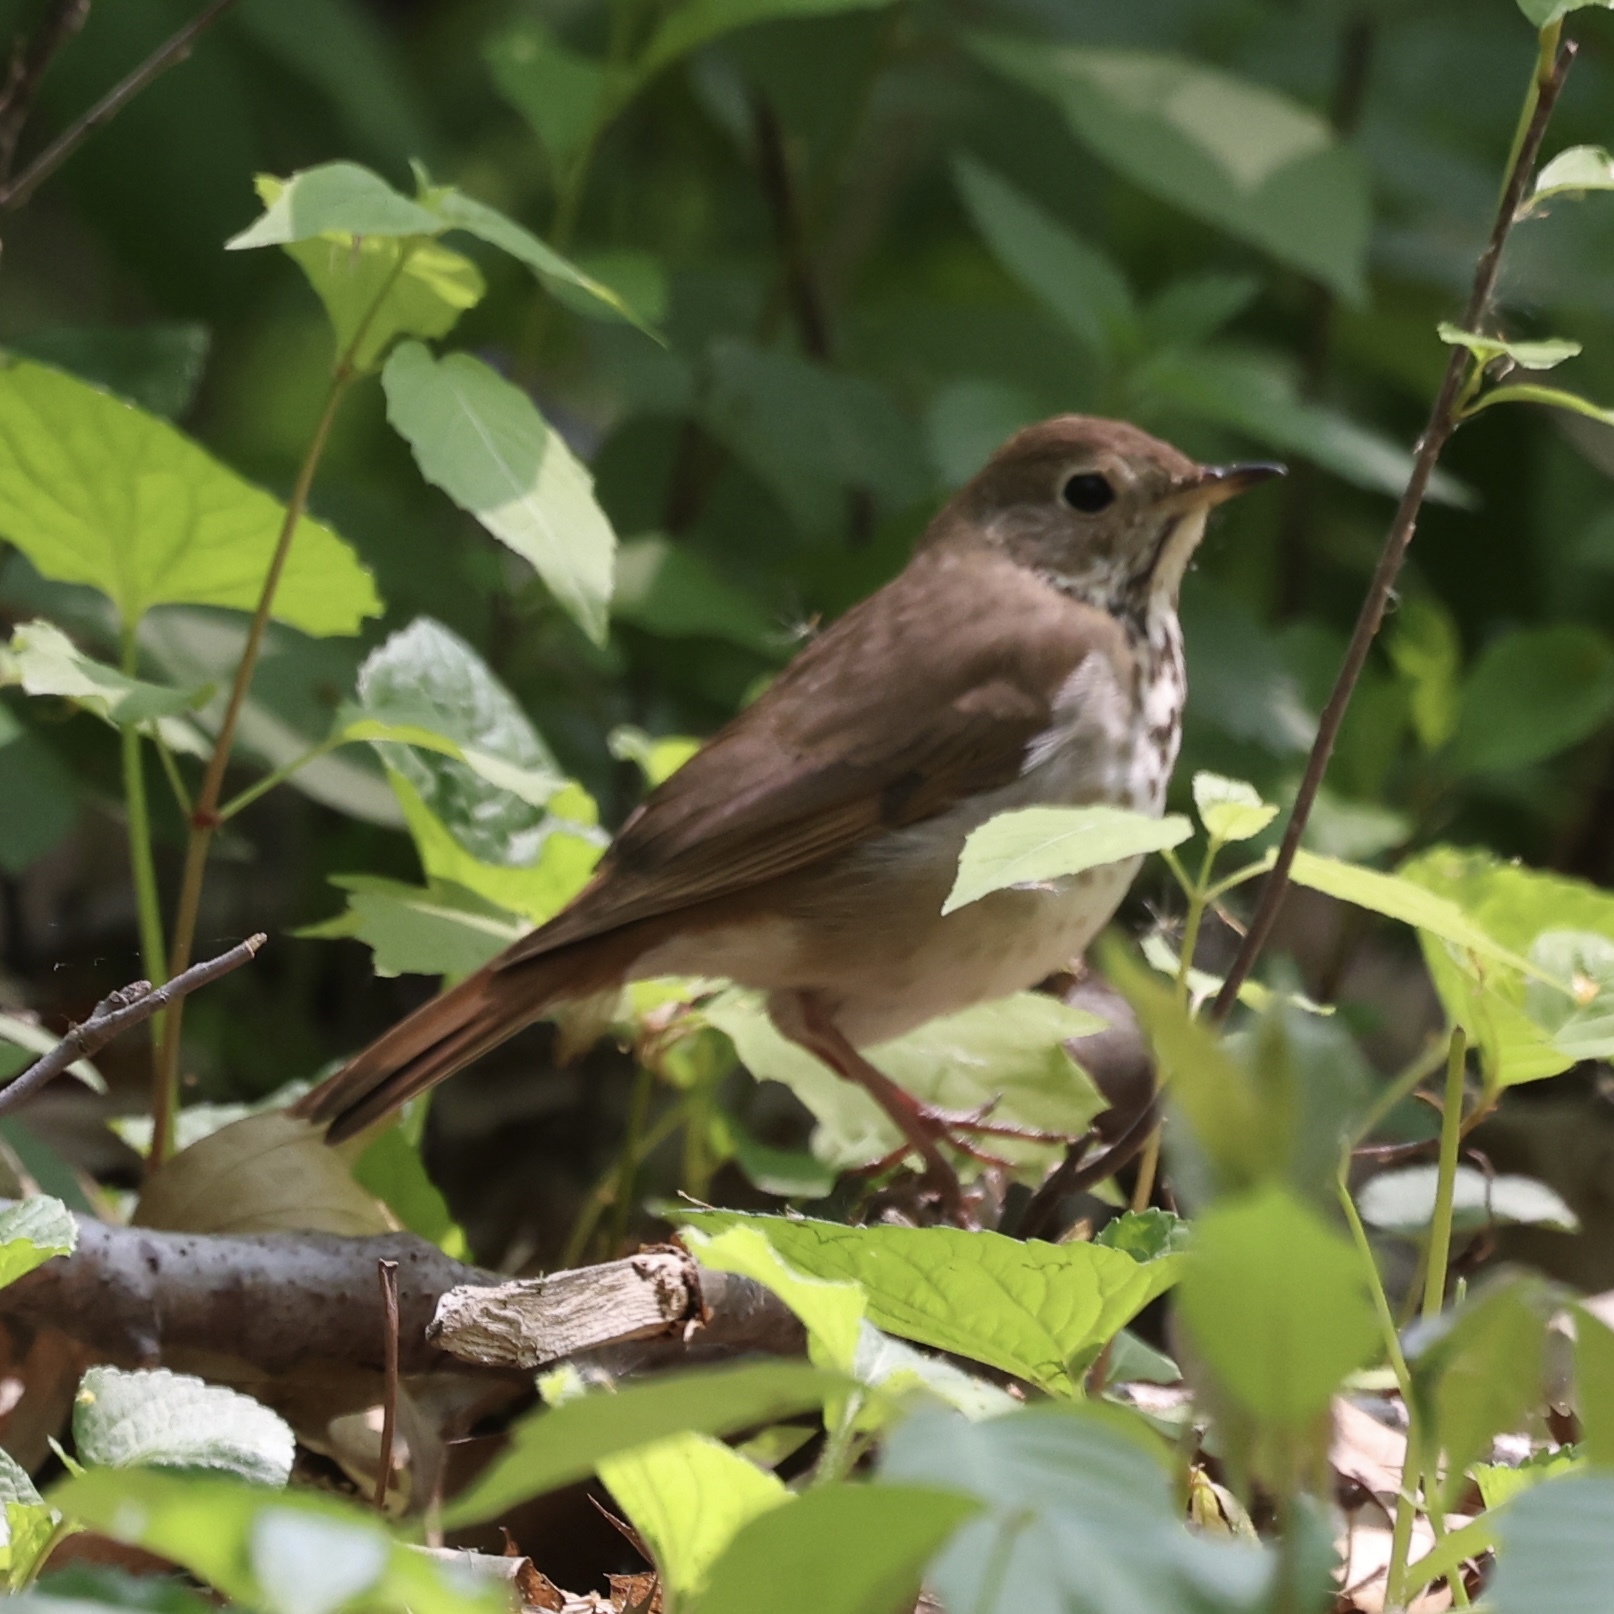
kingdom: Animalia
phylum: Chordata
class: Aves
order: Passeriformes
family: Turdidae
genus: Catharus
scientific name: Catharus guttatus
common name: Hermit thrush
